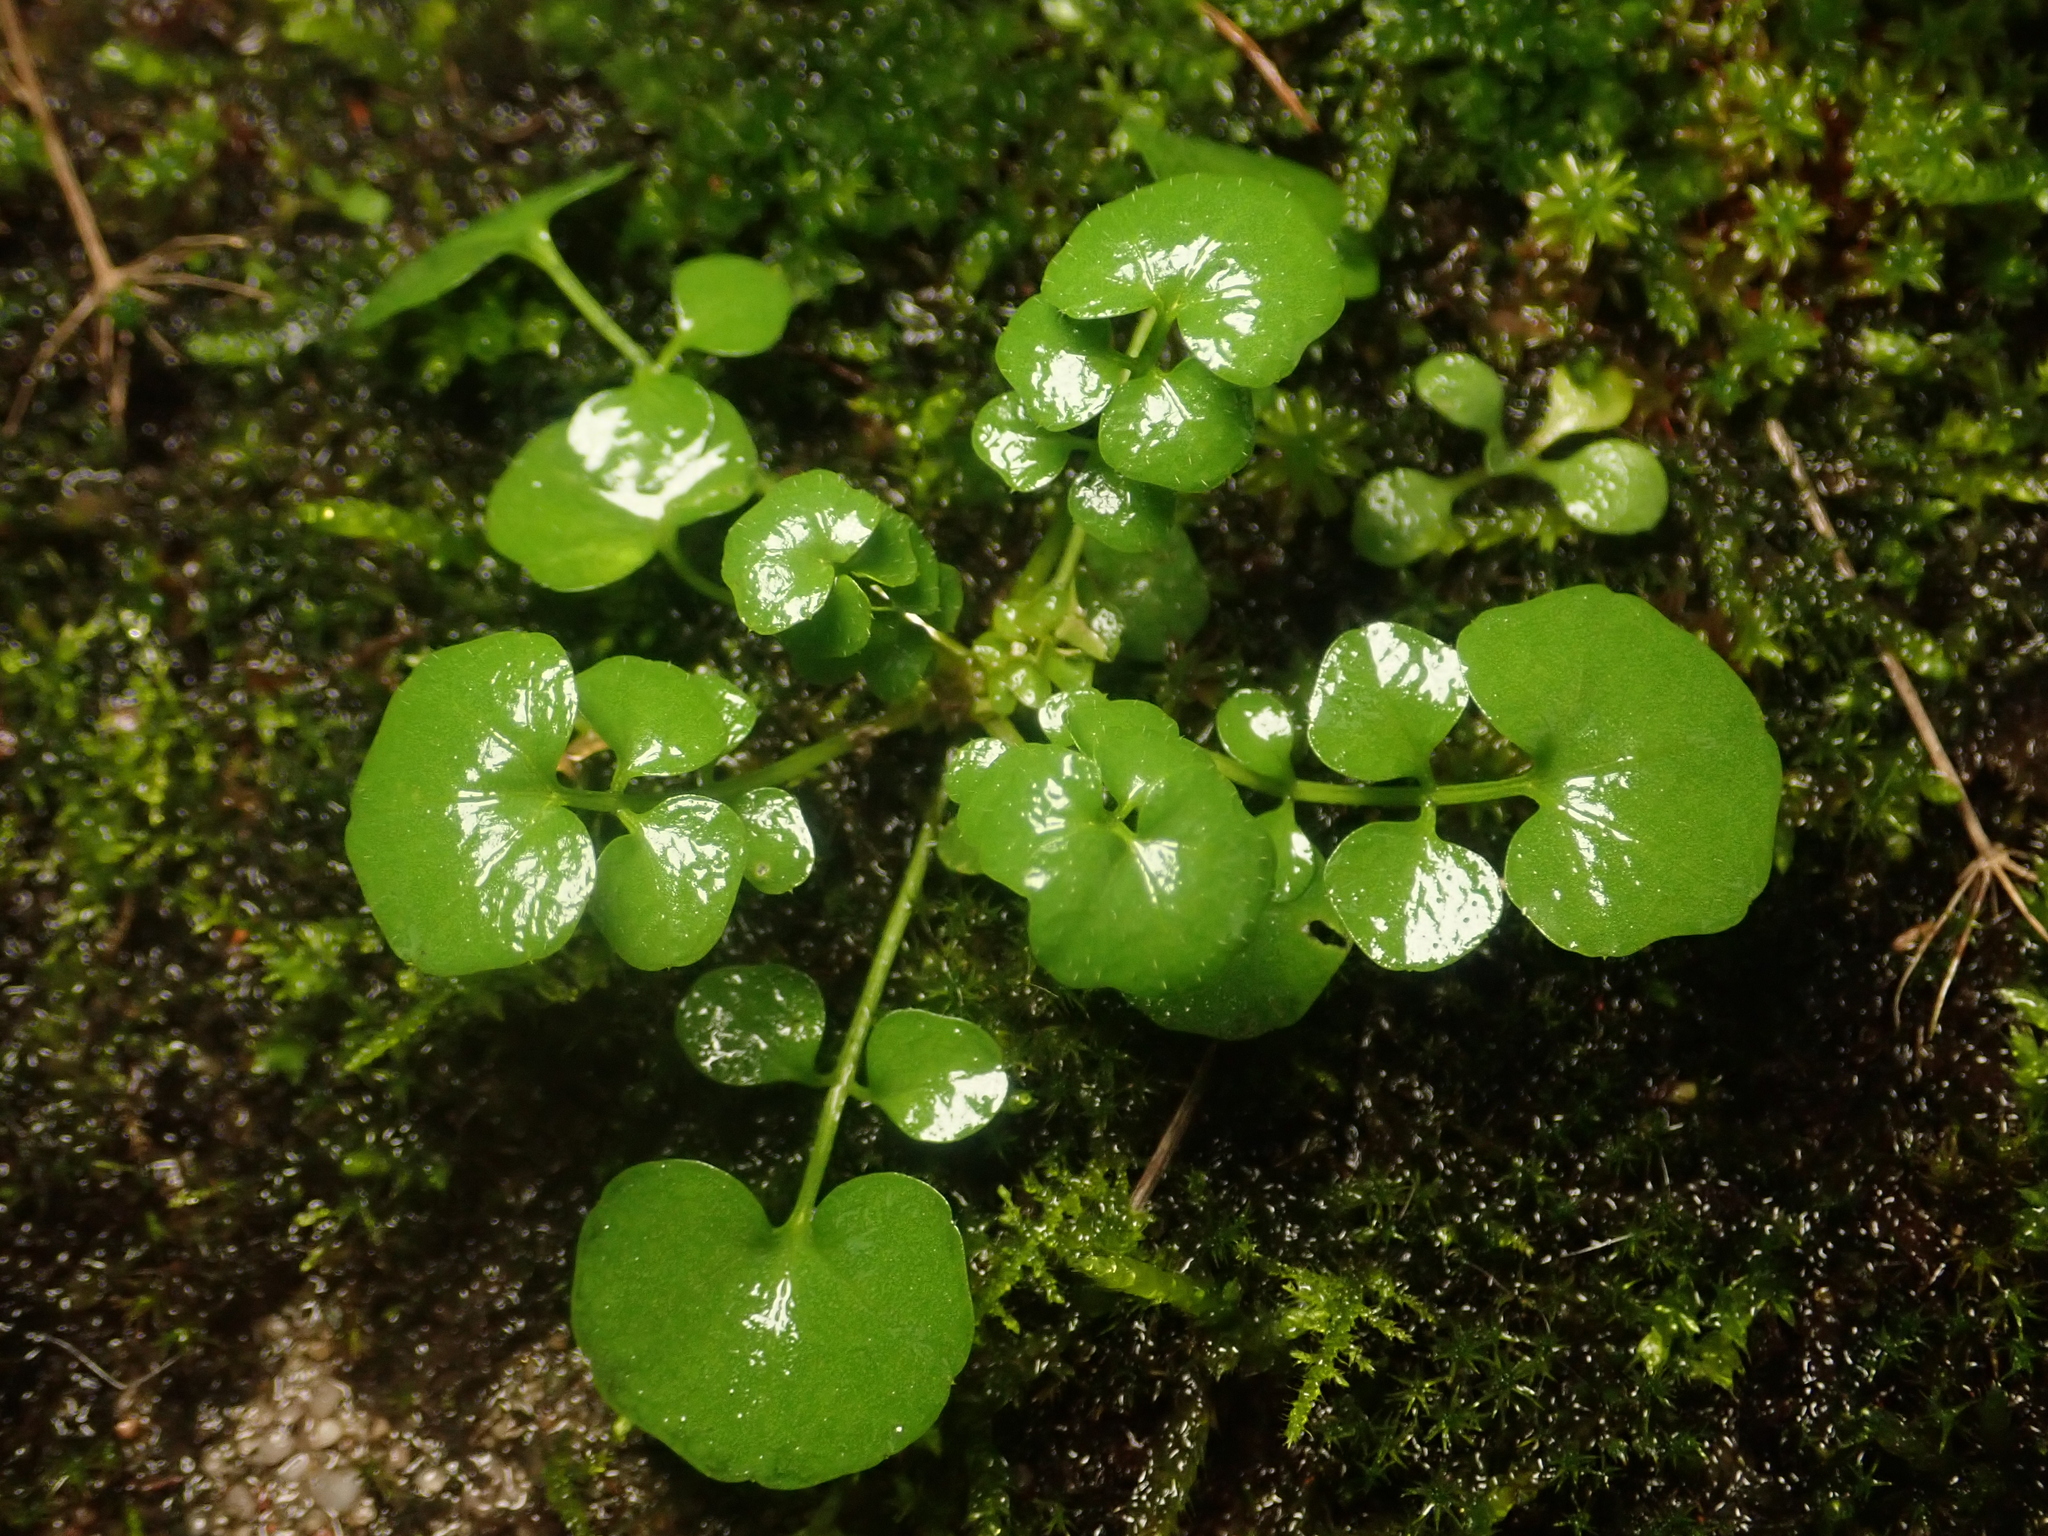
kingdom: Plantae
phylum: Tracheophyta
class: Magnoliopsida
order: Brassicales
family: Brassicaceae
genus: Cardamine
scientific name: Cardamine hirsuta
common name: Hairy bittercress
